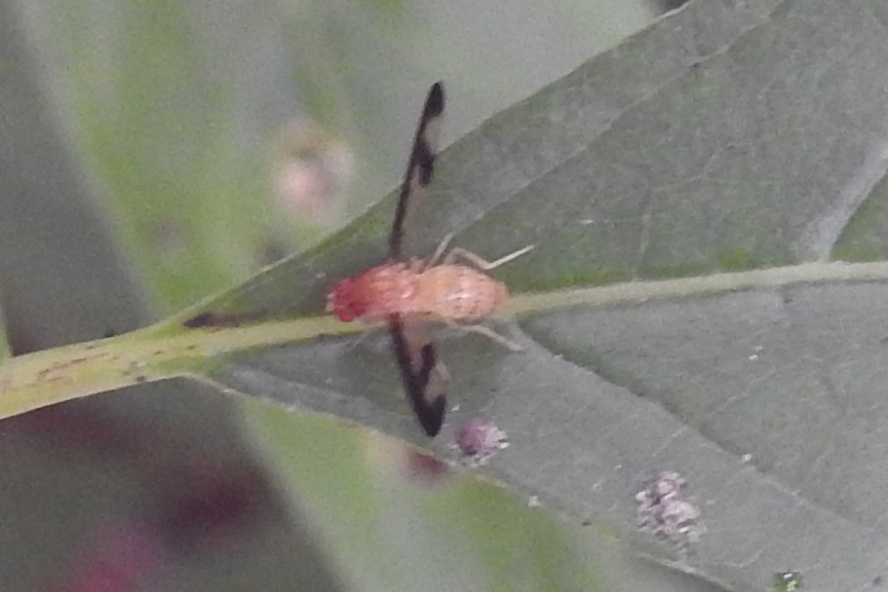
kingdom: Animalia
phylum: Arthropoda
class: Insecta
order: Diptera
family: Pallopteridae
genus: Toxonevra
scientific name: Toxonevra superba
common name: Antlered flutter fly
